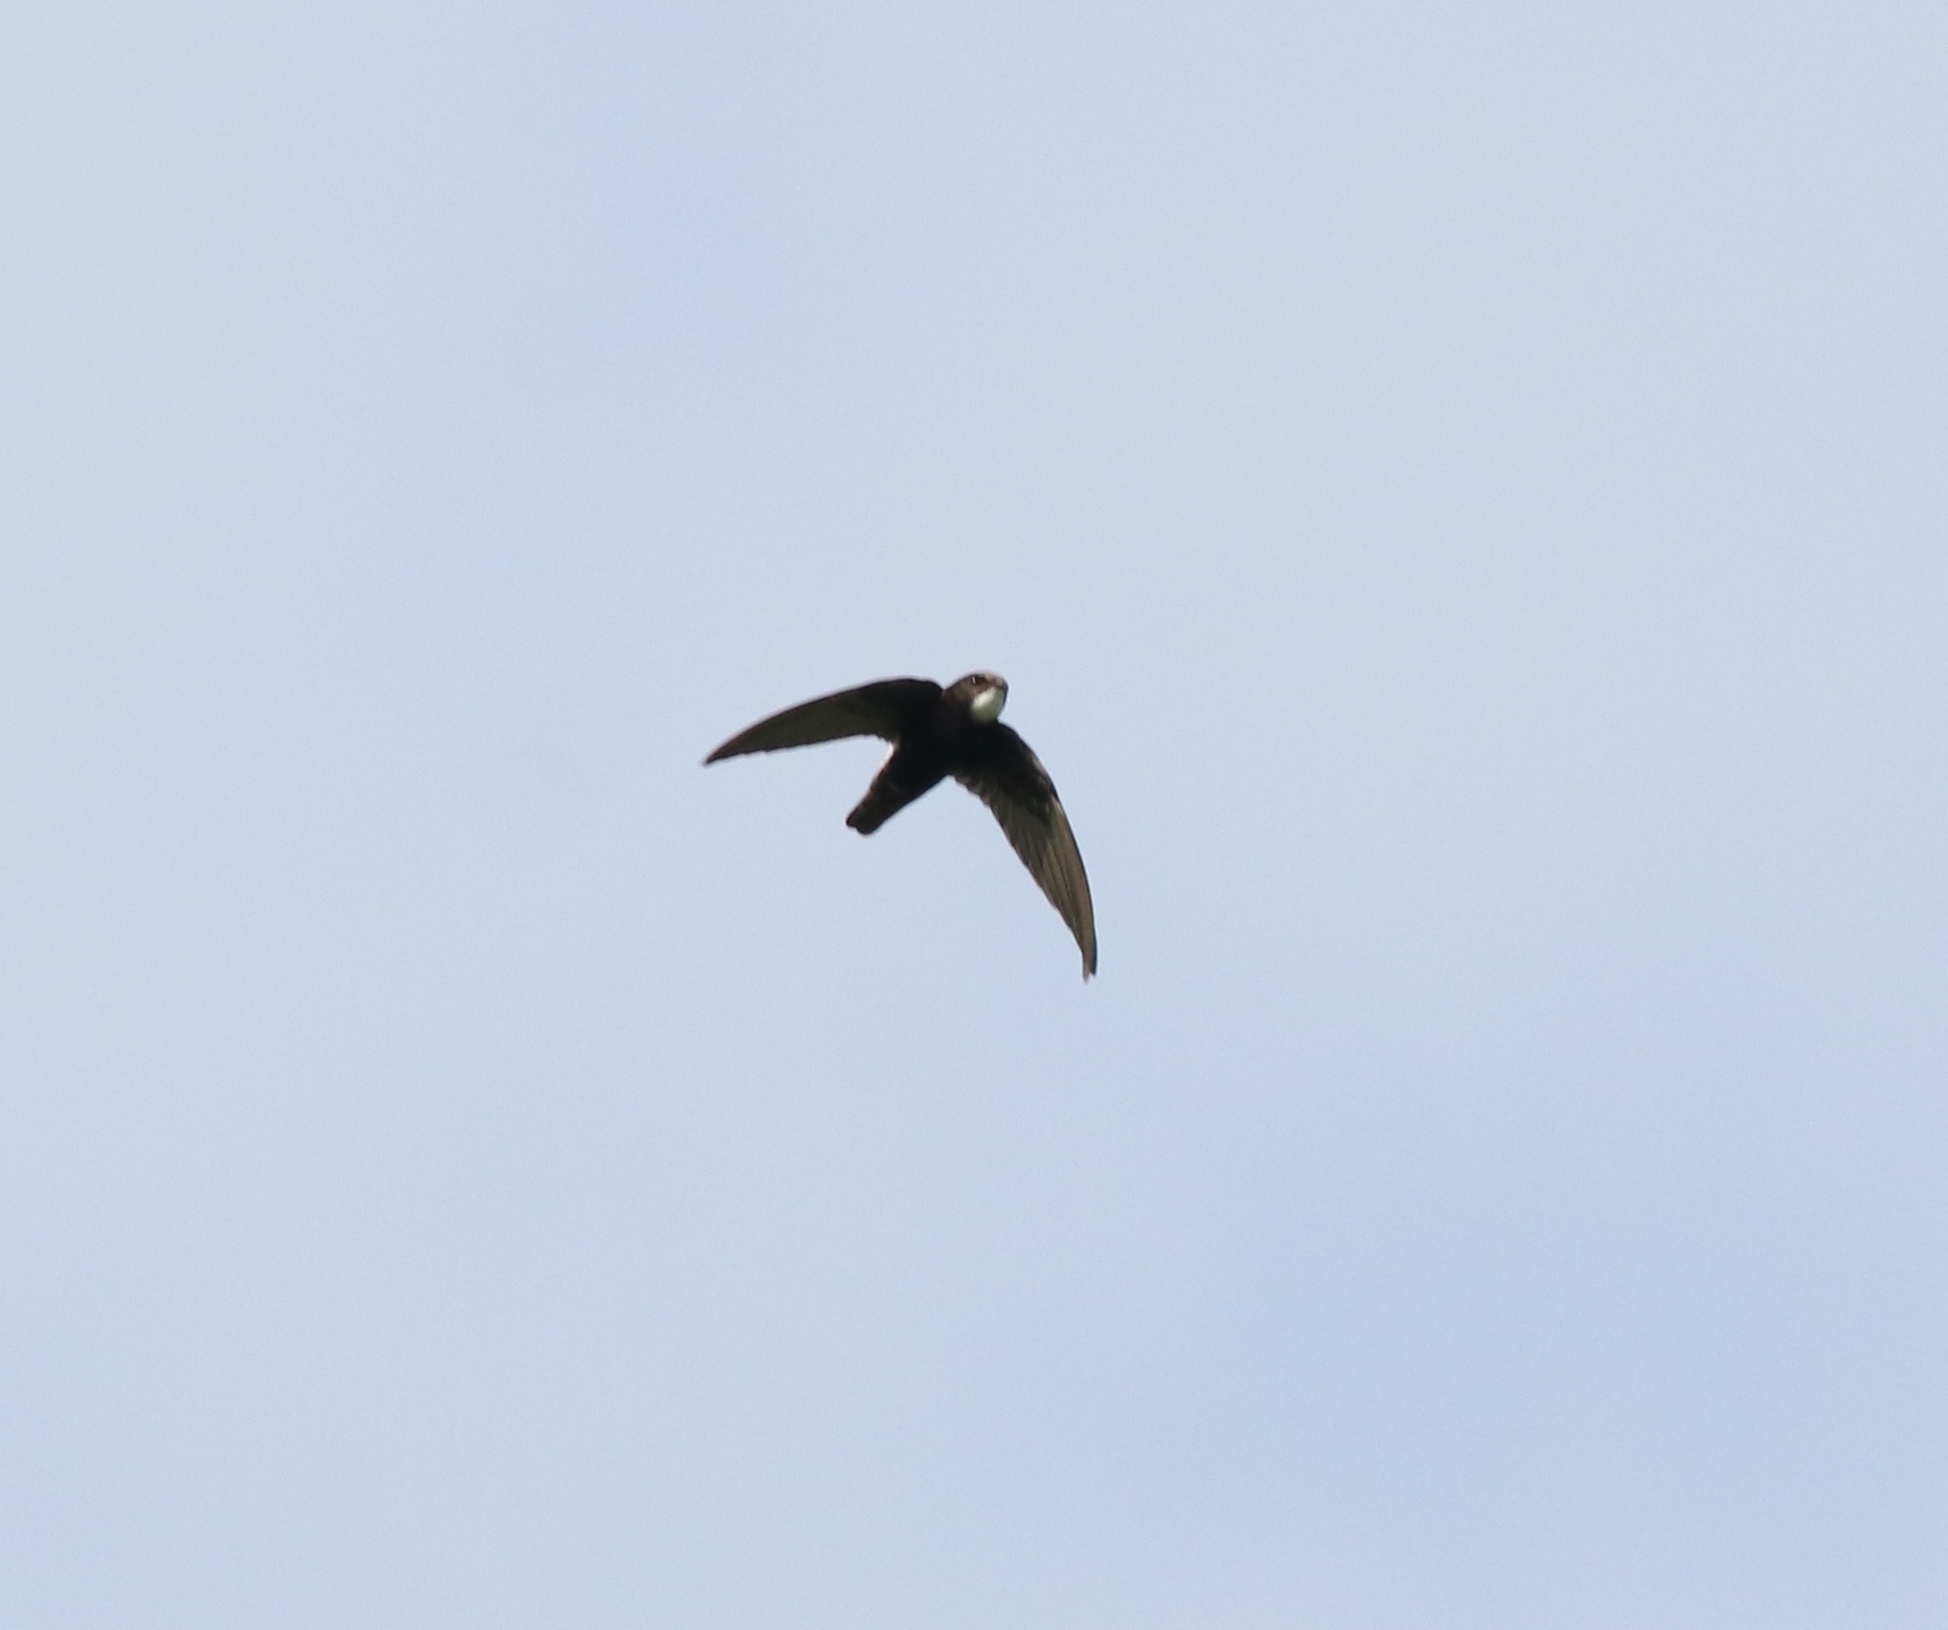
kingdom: Animalia
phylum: Chordata
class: Aves
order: Apodiformes
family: Apodidae
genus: Apus
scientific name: Apus affinis
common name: Little swift
